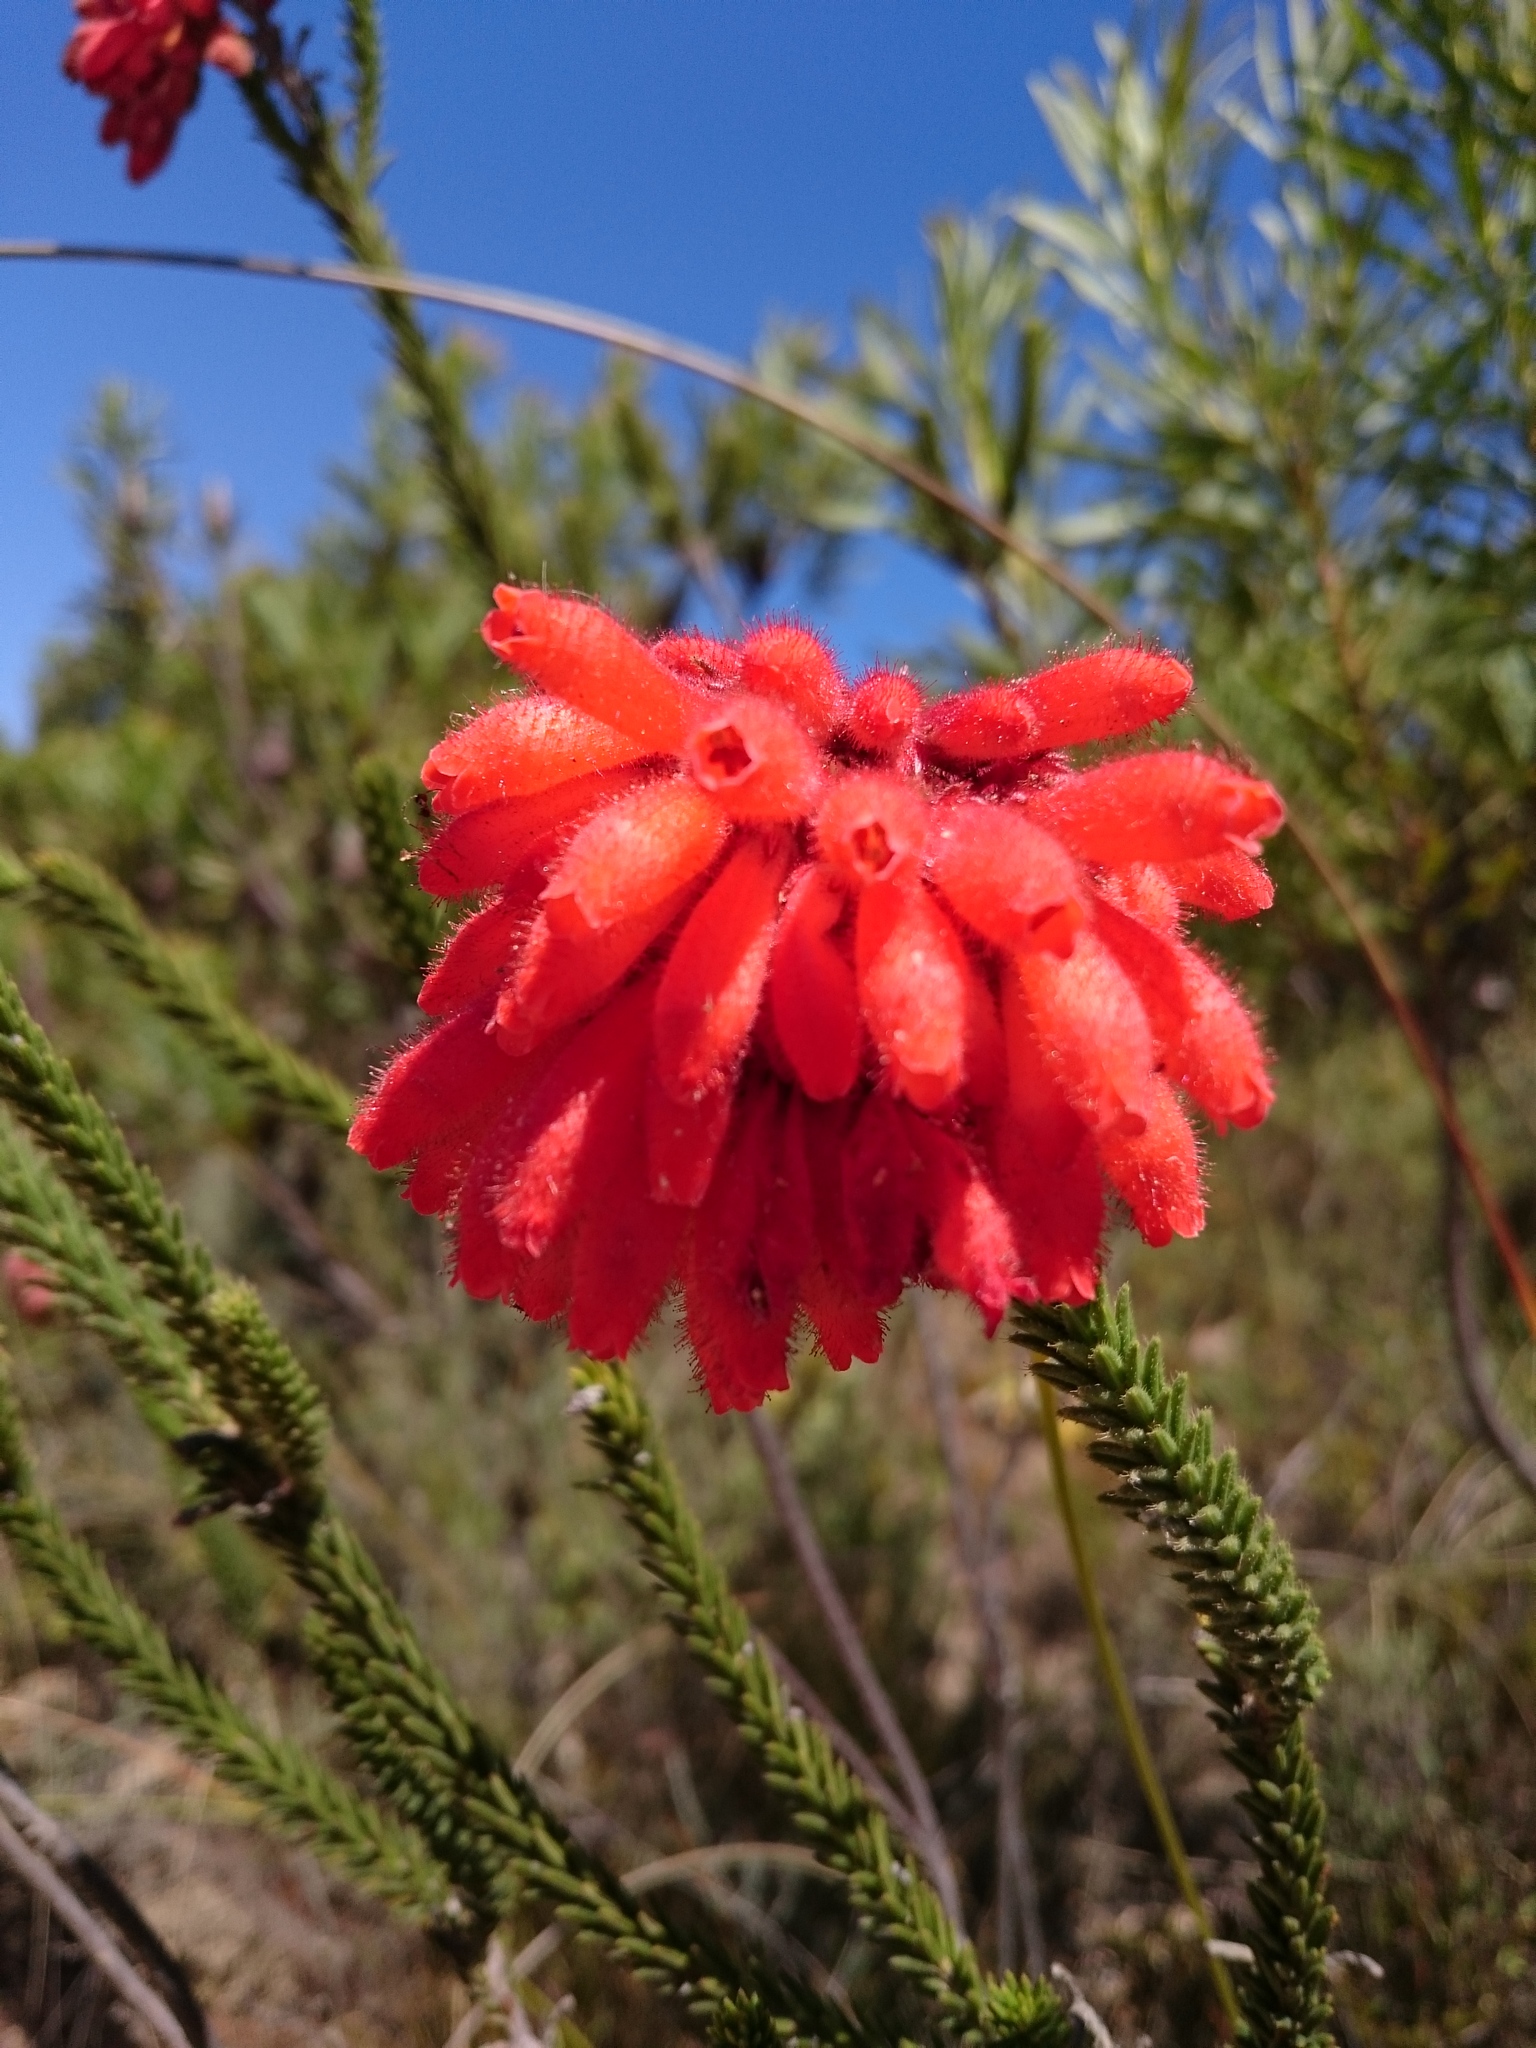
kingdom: Plantae
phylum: Tracheophyta
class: Magnoliopsida
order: Ericales
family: Ericaceae
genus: Erica
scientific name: Erica cerinthoides
